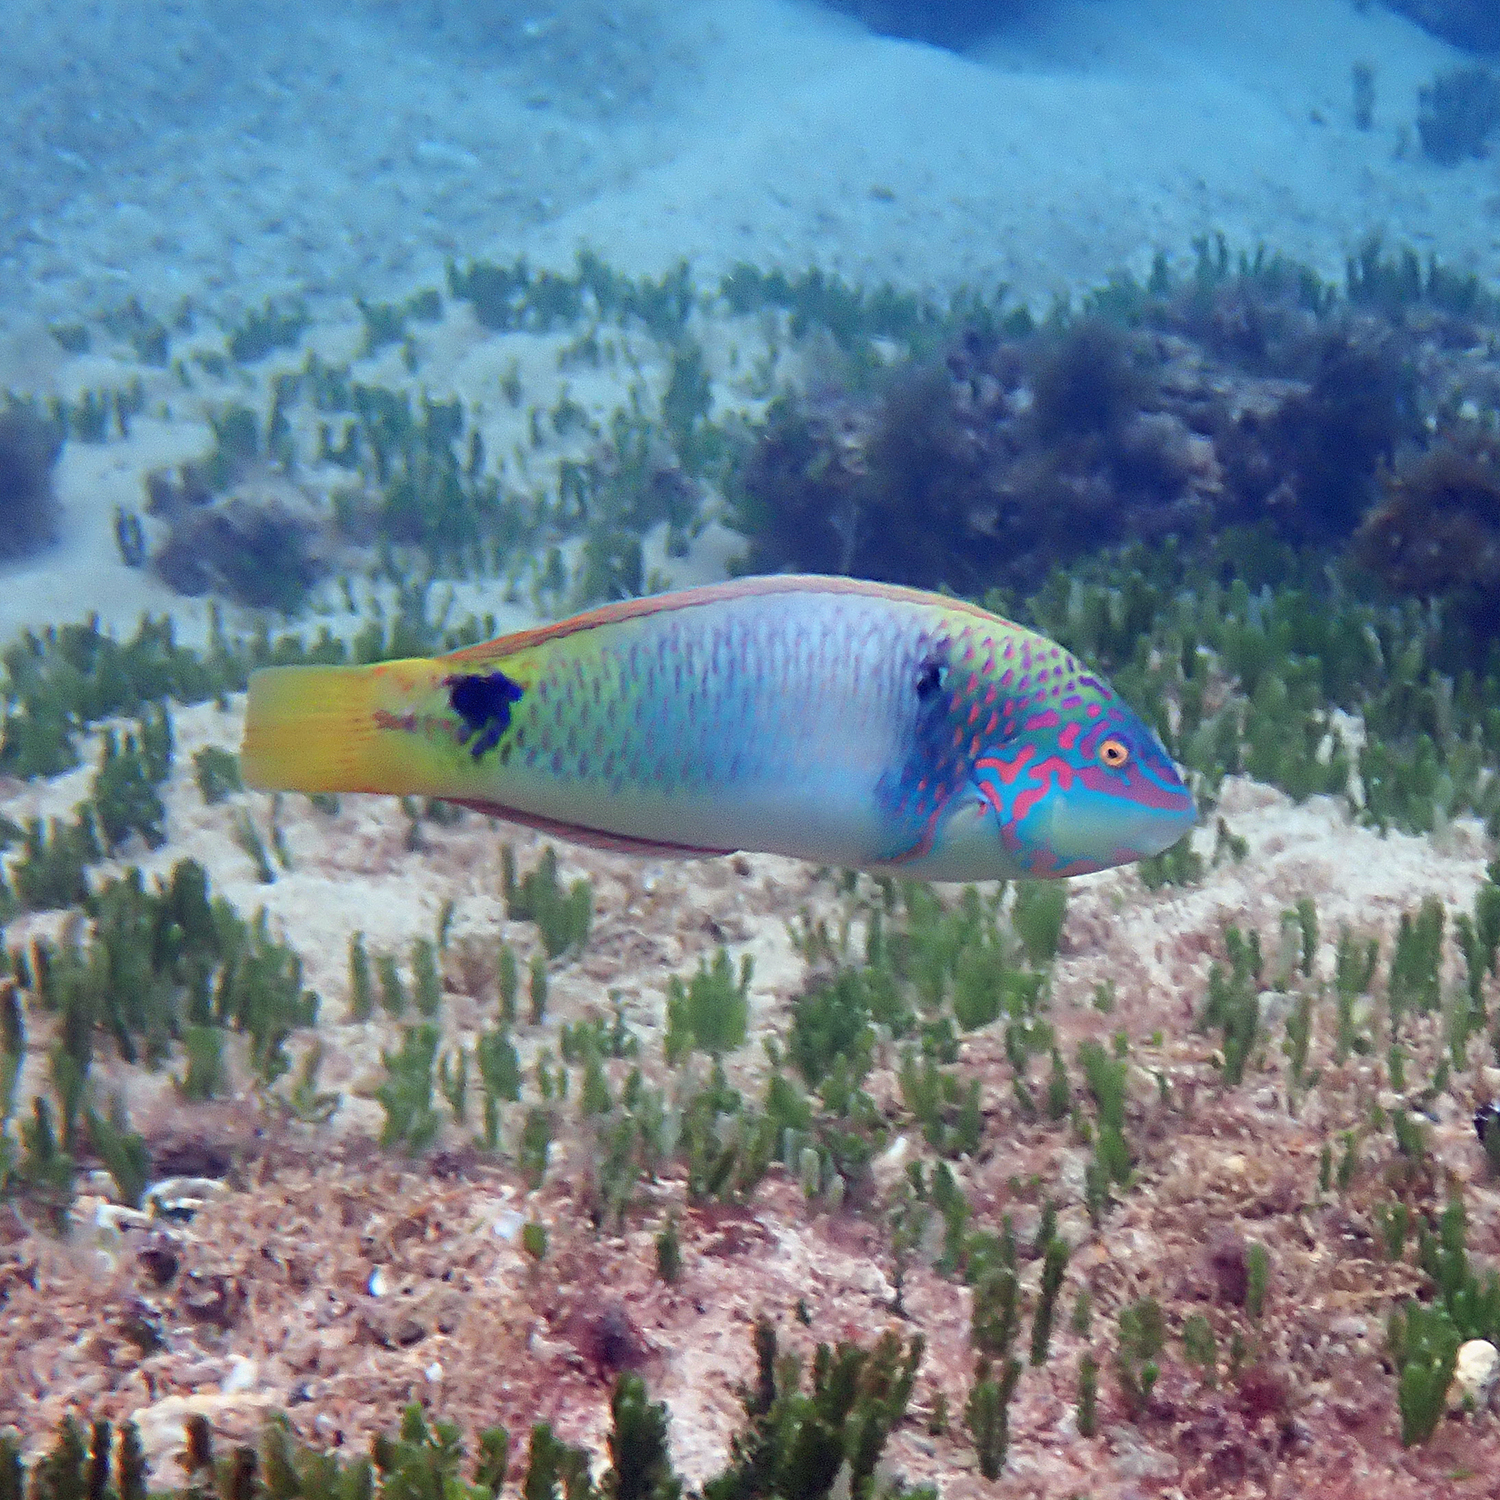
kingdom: Animalia
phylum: Chordata
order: Perciformes
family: Labridae
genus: Halichoeres
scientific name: Halichoeres trimaculatus
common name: Three-spot wrasse
